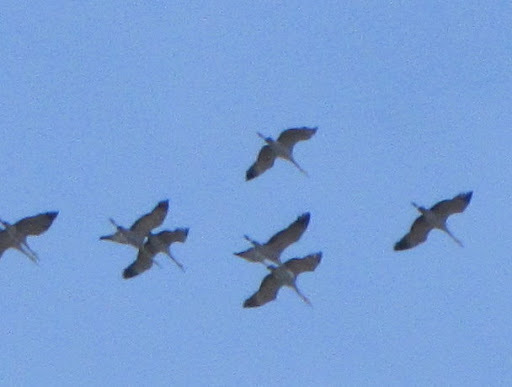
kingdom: Animalia
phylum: Chordata
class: Aves
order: Gruiformes
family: Gruidae
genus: Grus
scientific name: Grus canadensis
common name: Sandhill crane
